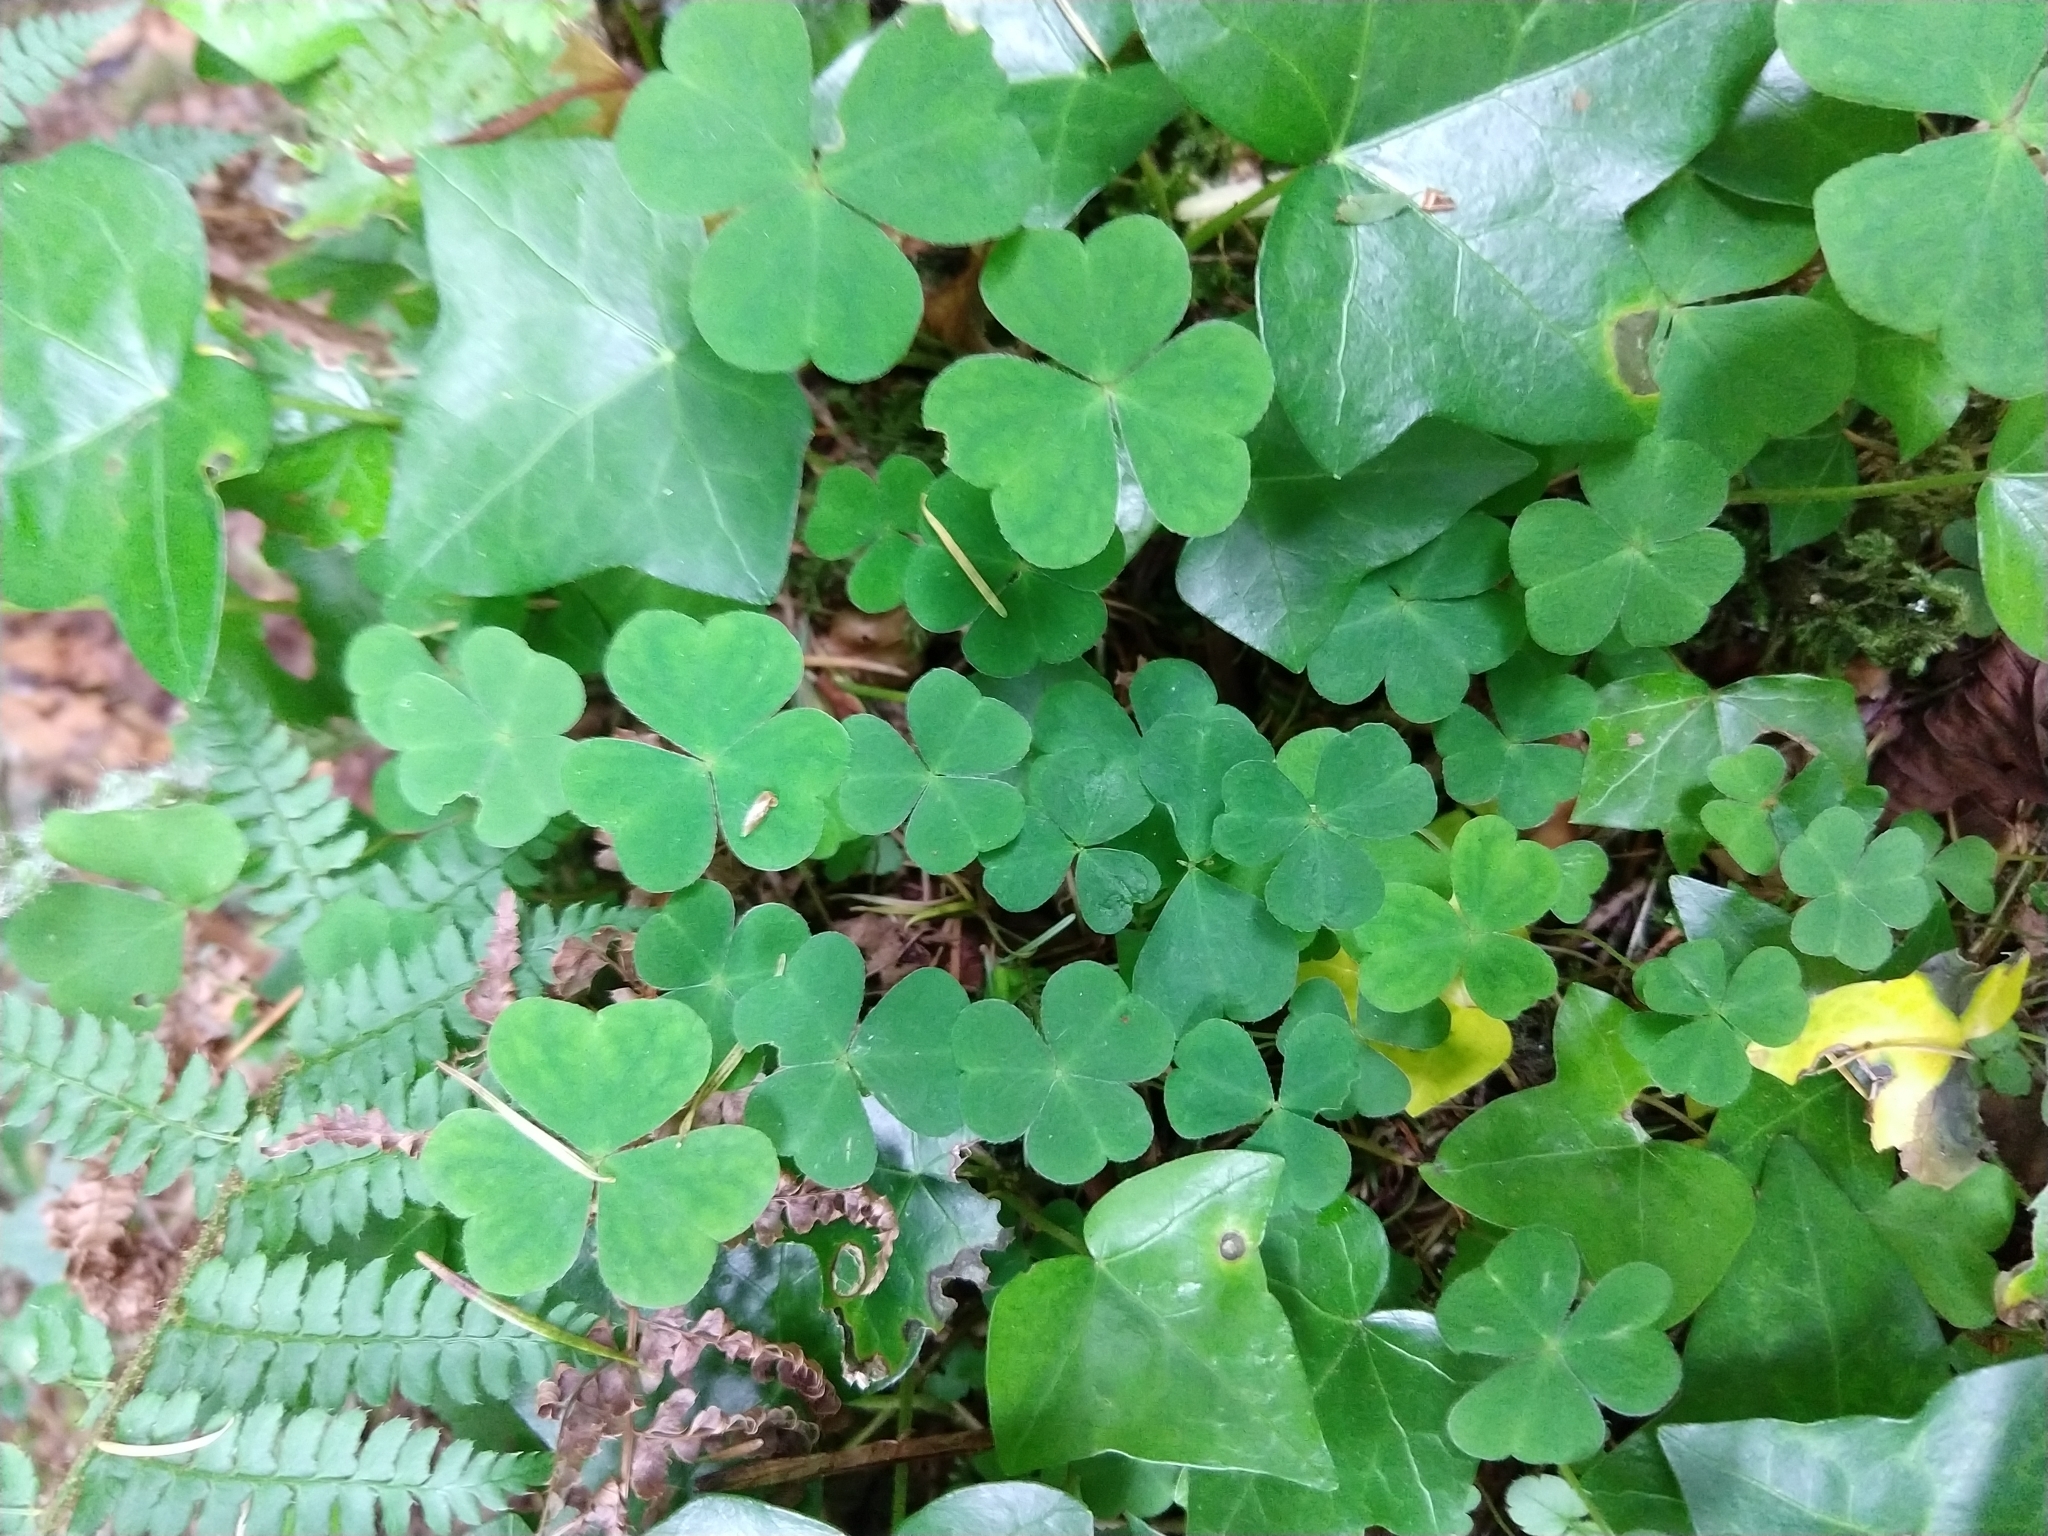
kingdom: Plantae
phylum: Tracheophyta
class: Magnoliopsida
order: Oxalidales
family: Oxalidaceae
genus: Oxalis
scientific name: Oxalis acetosella
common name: Wood-sorrel
